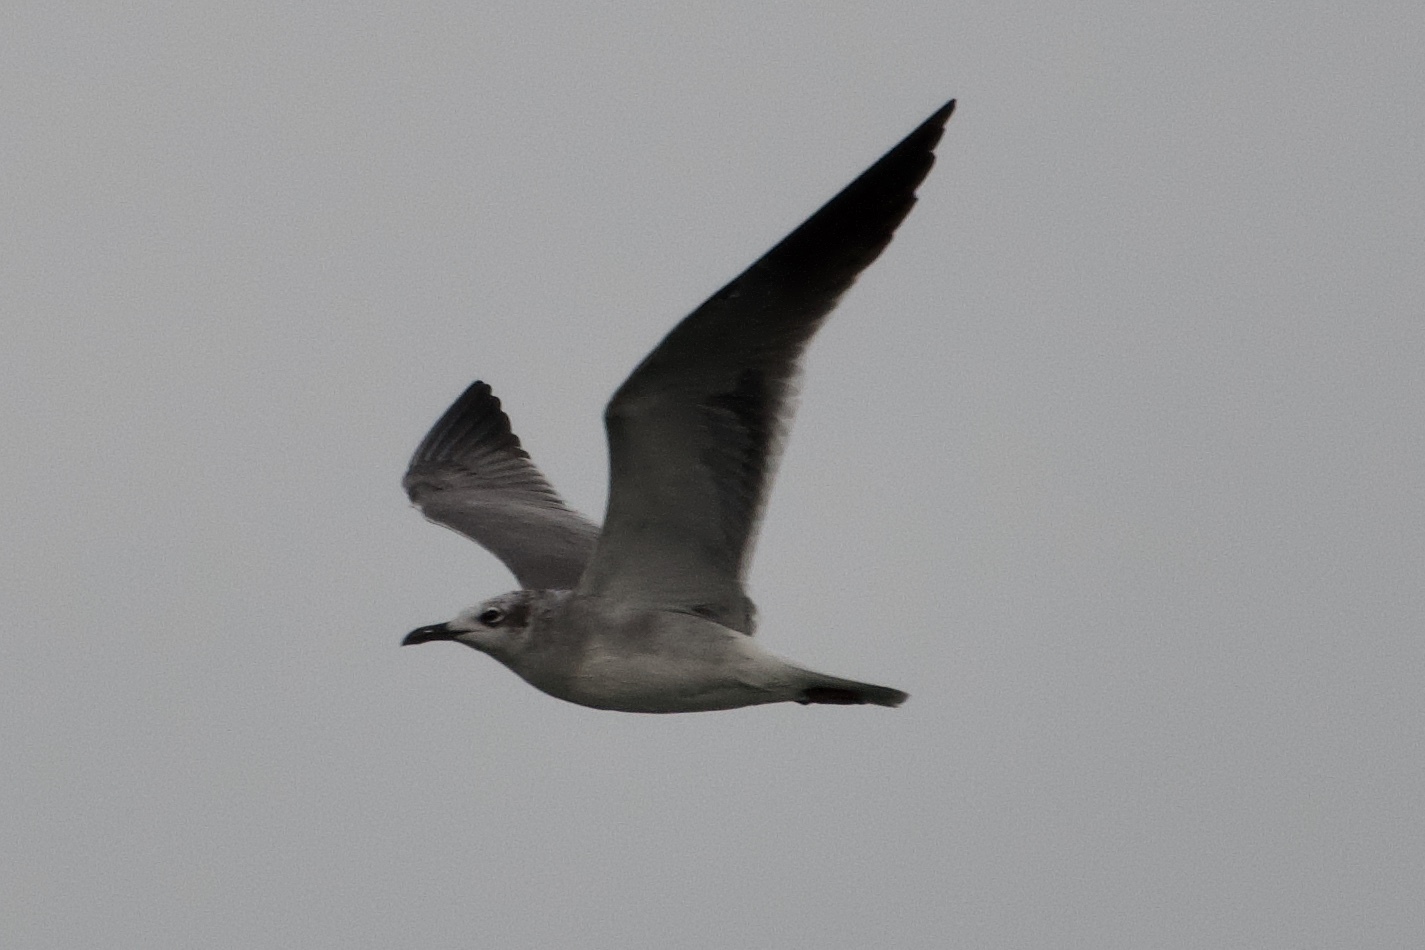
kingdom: Animalia
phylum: Chordata
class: Aves
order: Charadriiformes
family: Laridae
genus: Leucophaeus
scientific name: Leucophaeus atricilla
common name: Laughing gull
